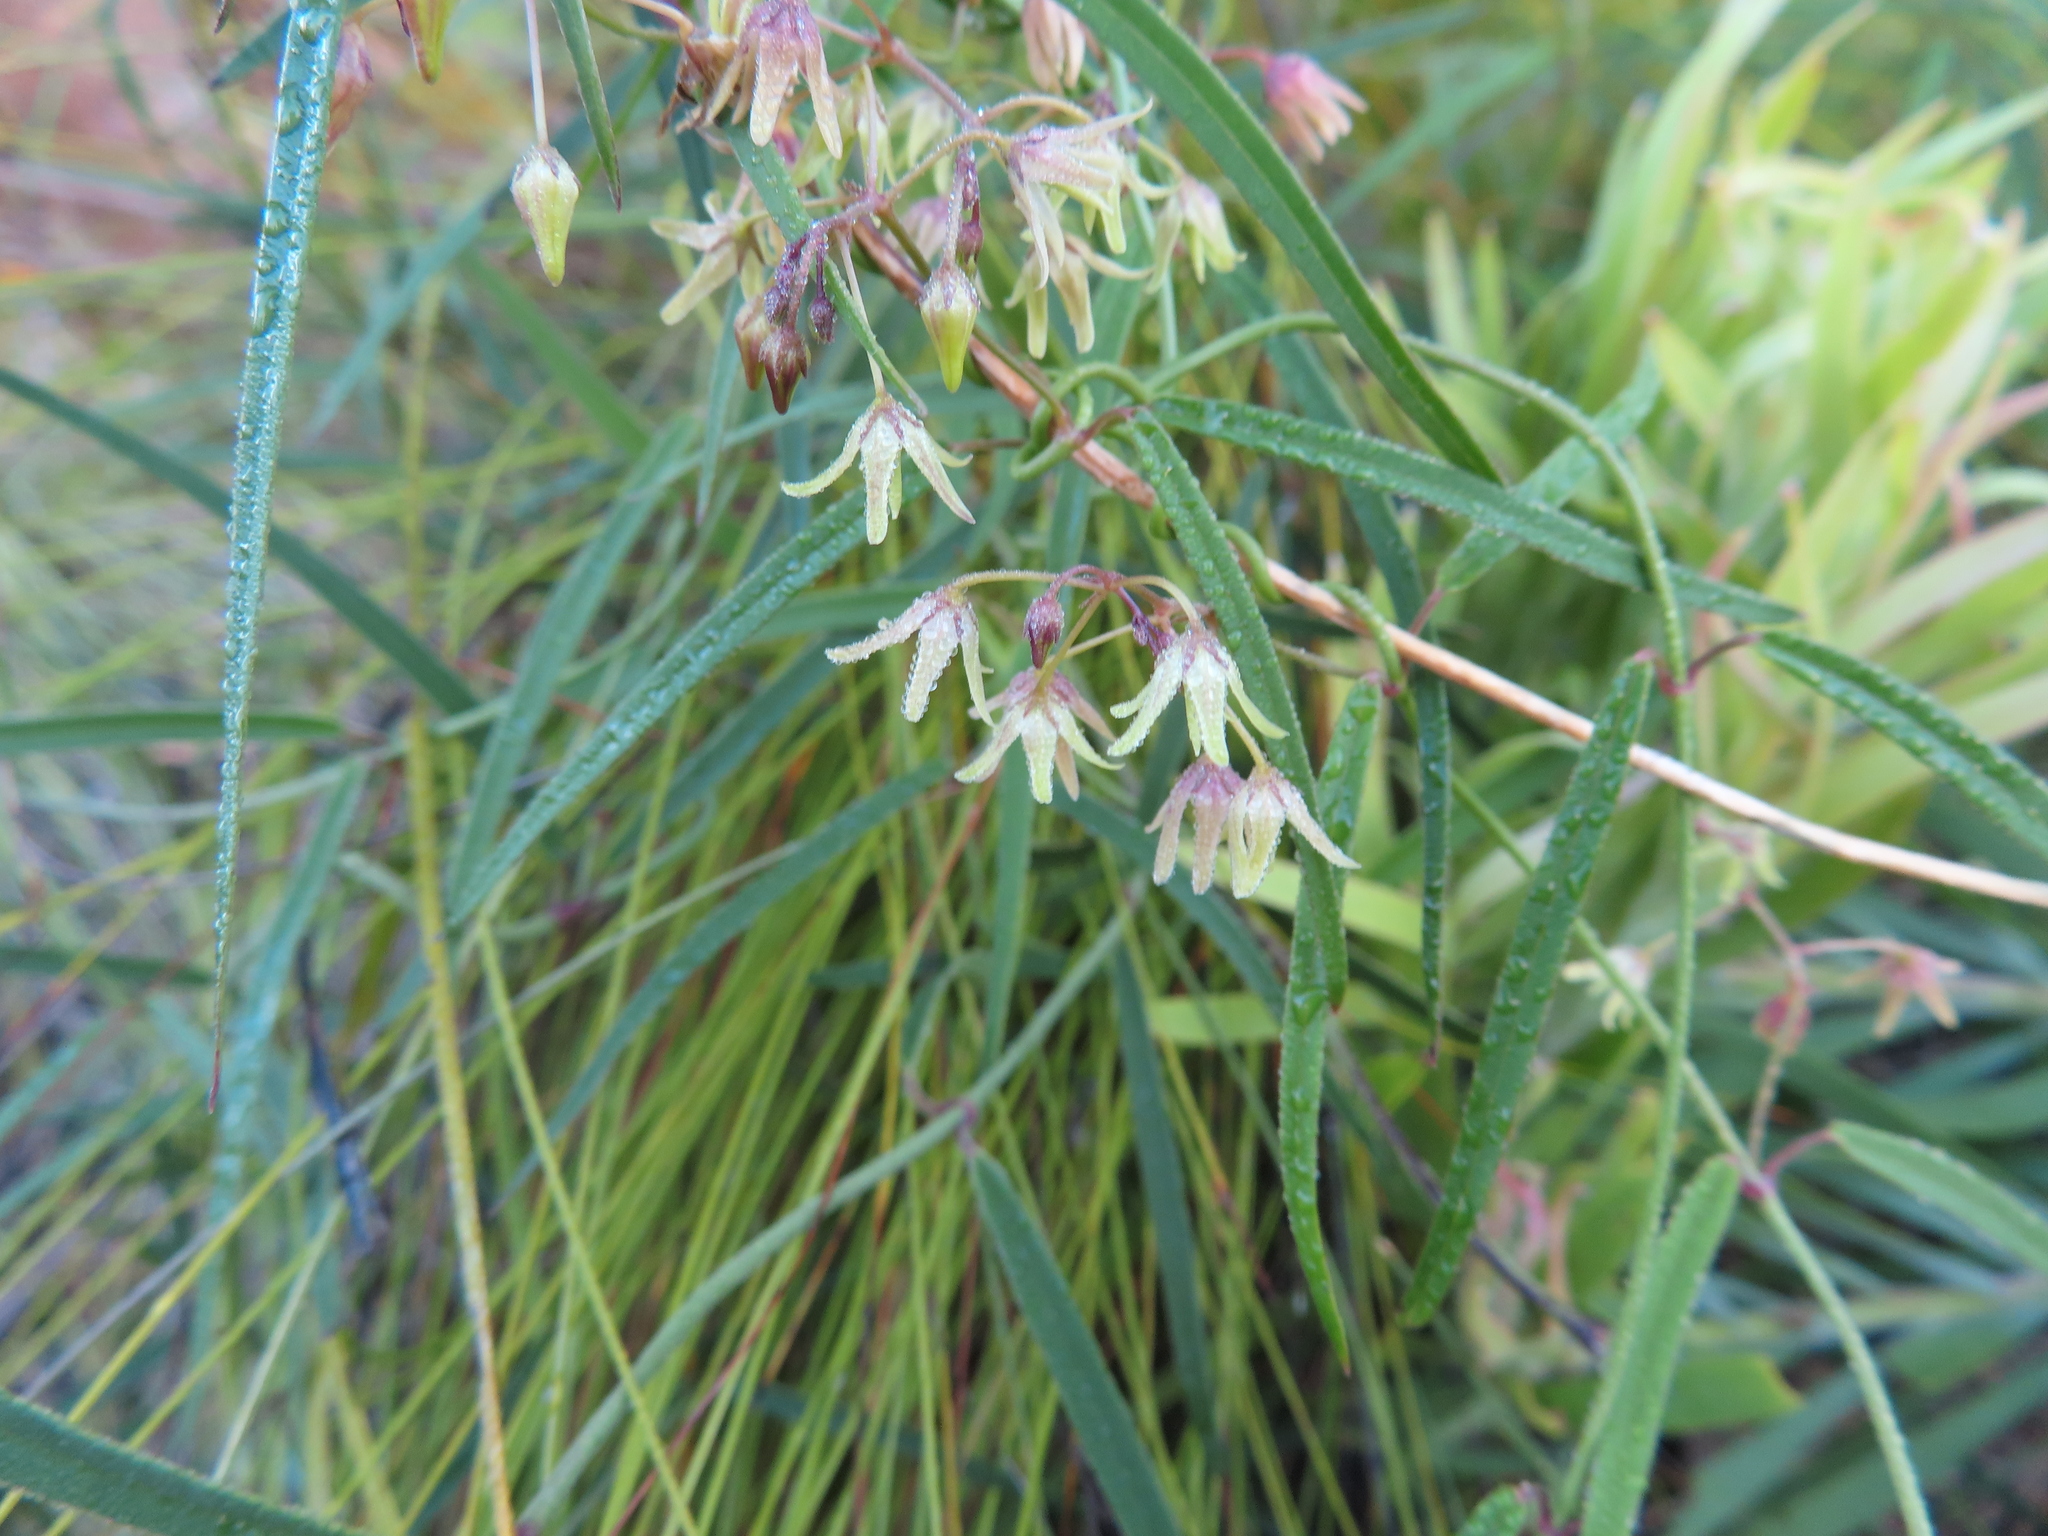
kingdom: Plantae
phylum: Tracheophyta
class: Magnoliopsida
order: Gentianales
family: Apocynaceae
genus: Oncinema
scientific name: Oncinema lineare
